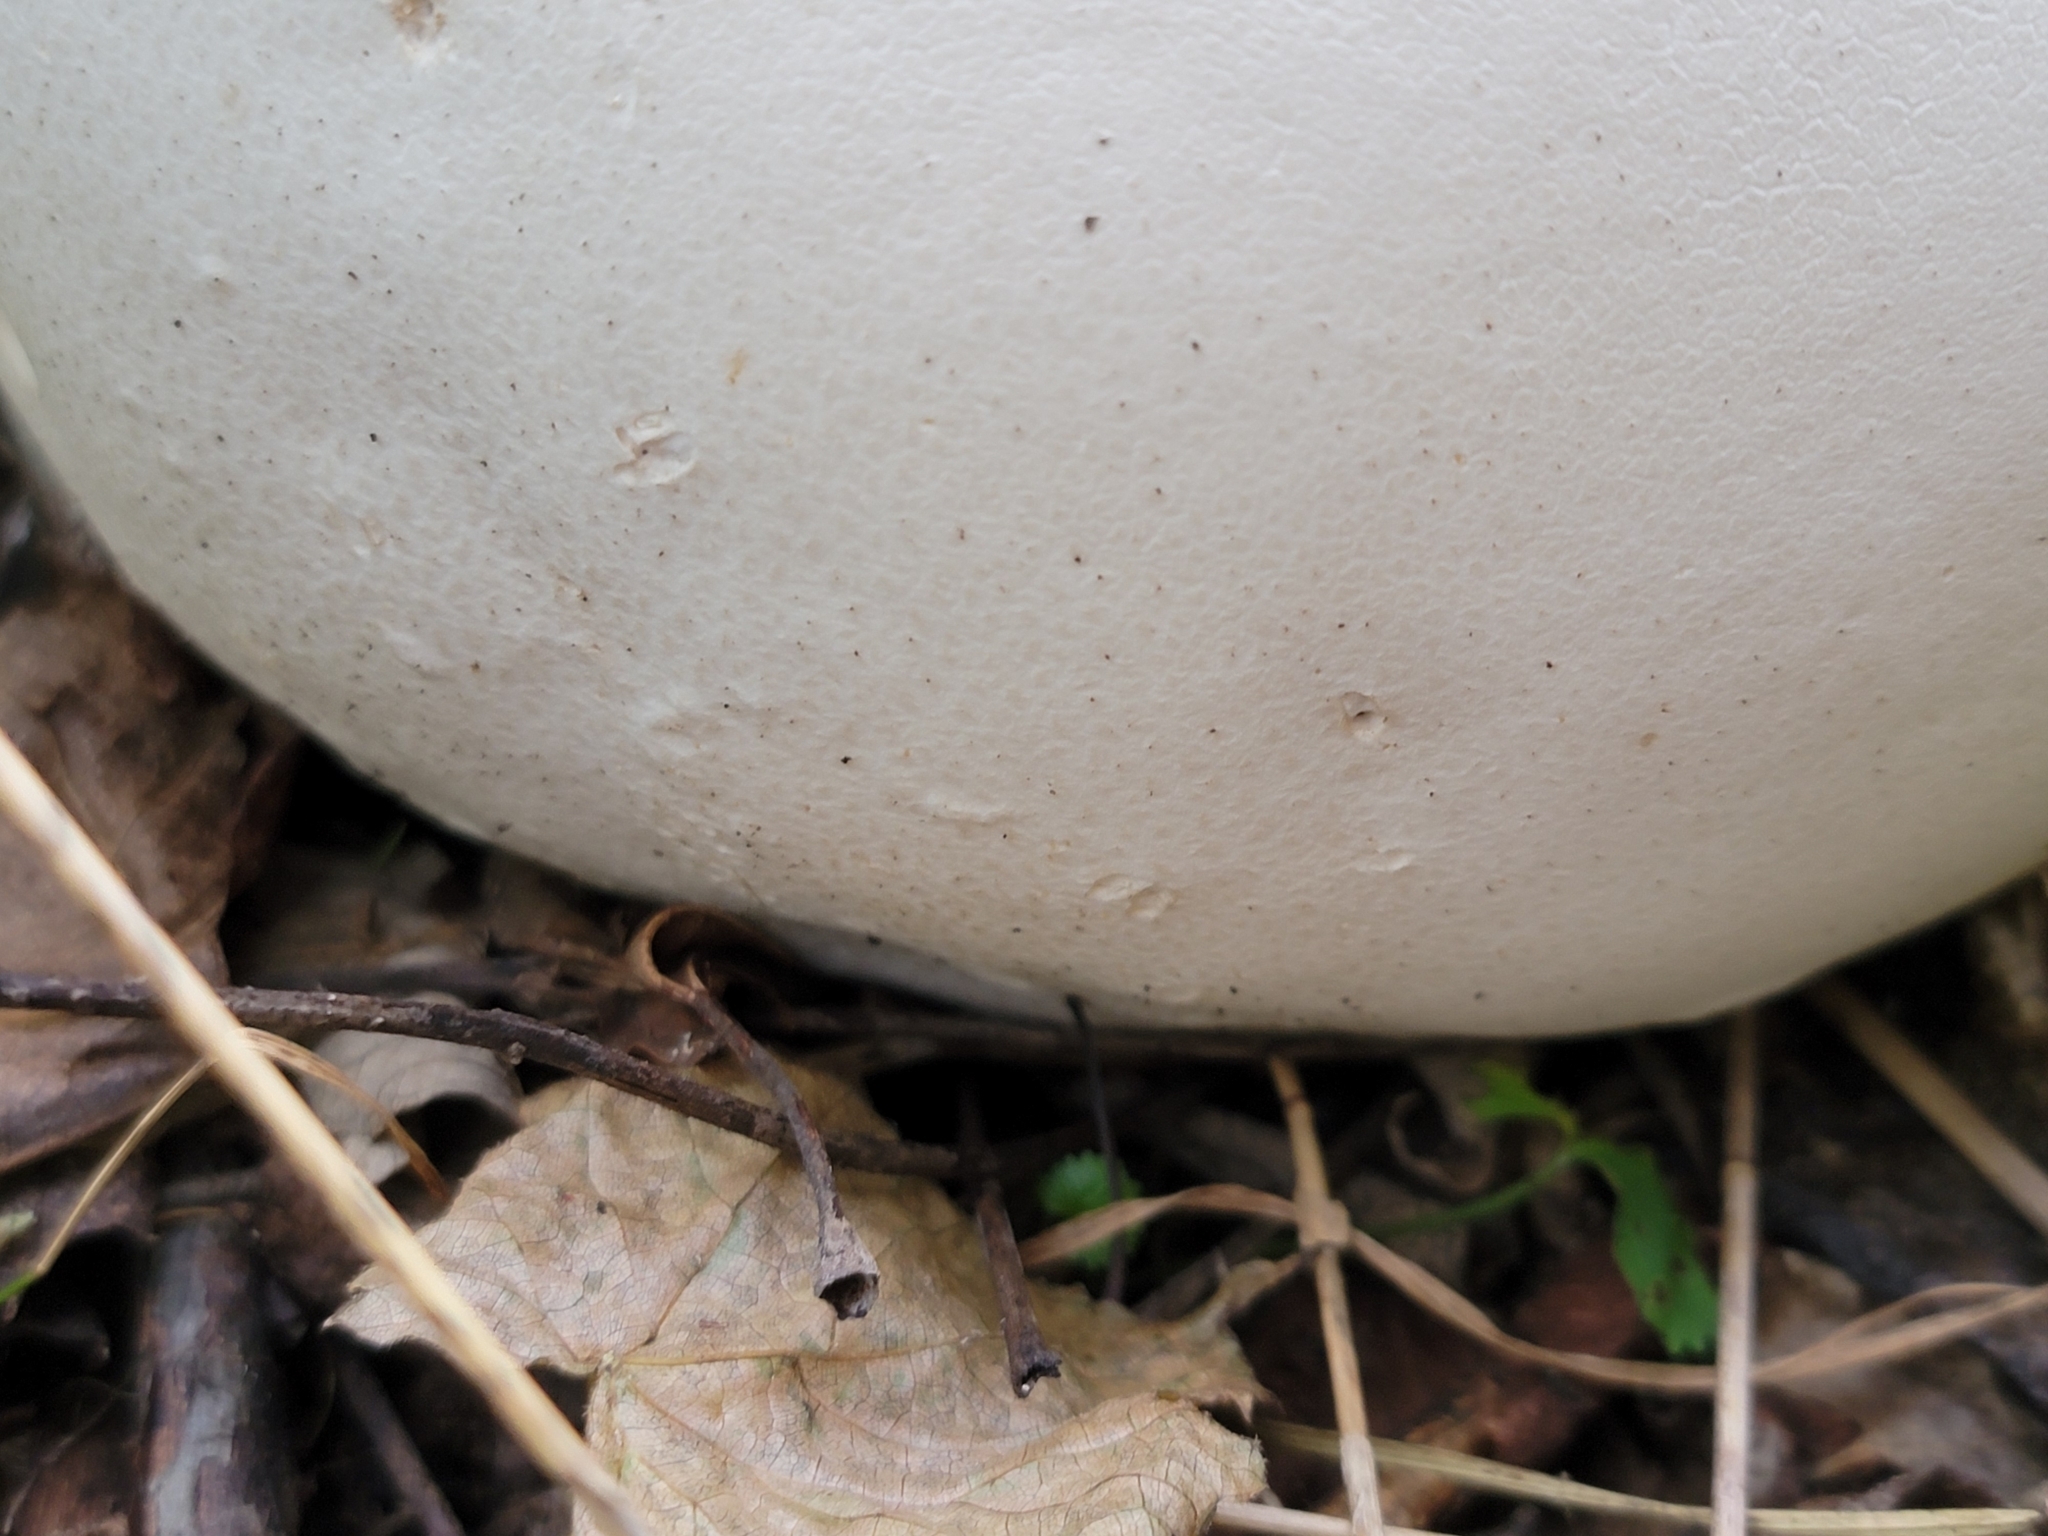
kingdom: Fungi
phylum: Basidiomycota
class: Agaricomycetes
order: Agaricales
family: Lycoperdaceae
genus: Calvatia
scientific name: Calvatia gigantea
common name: Giant puffball
